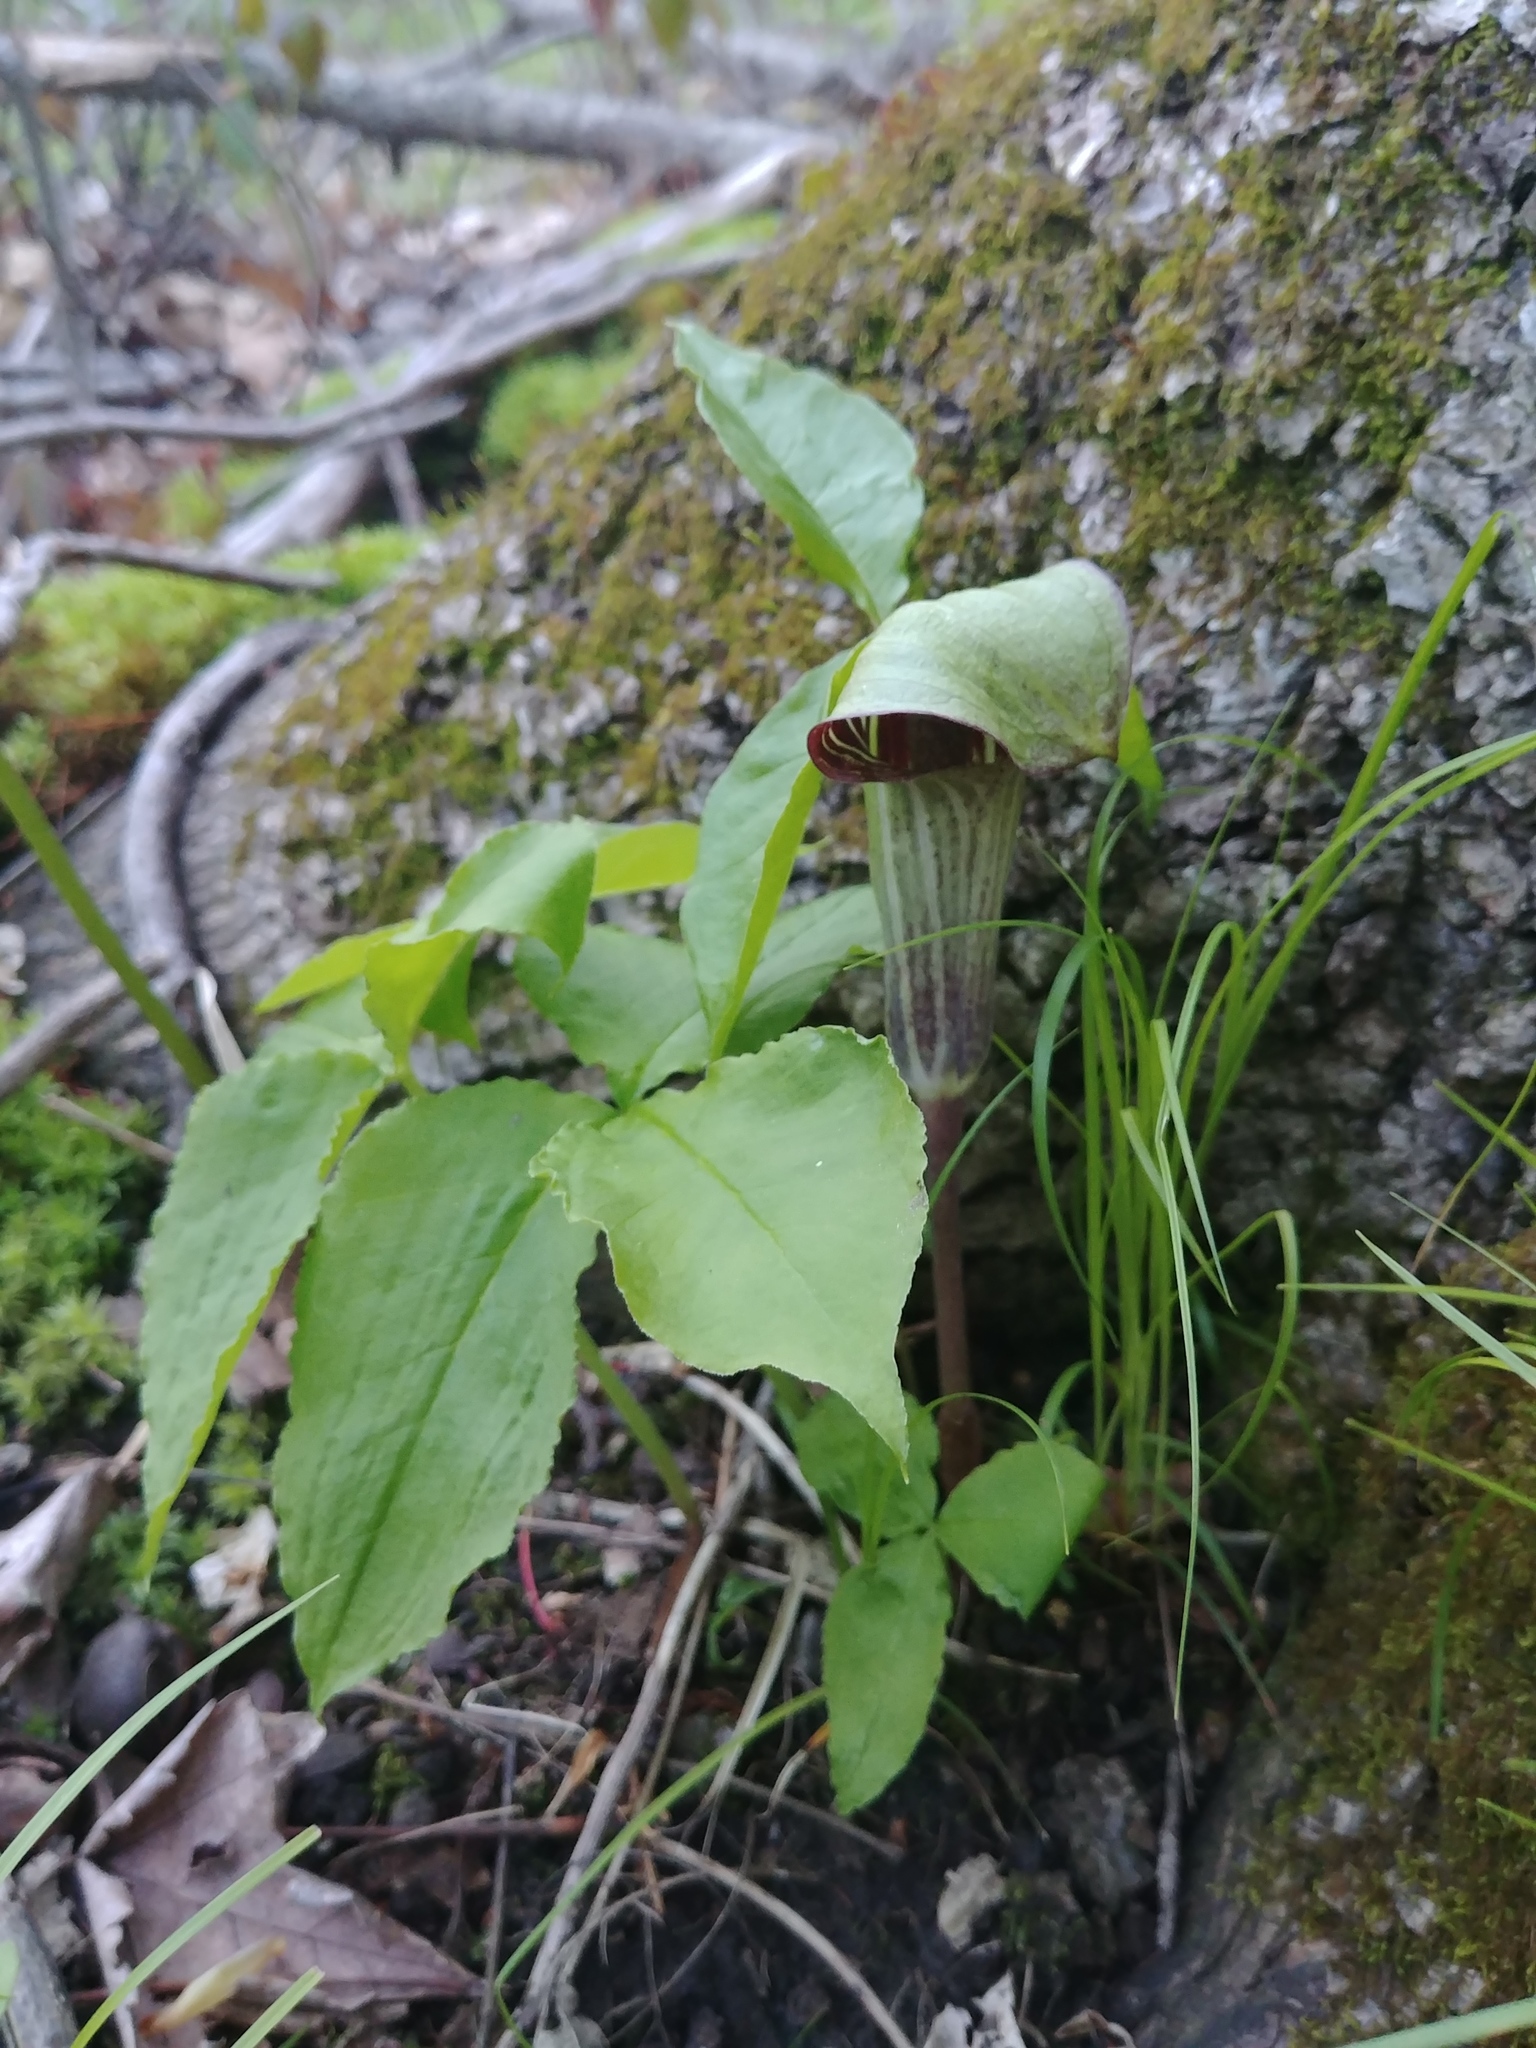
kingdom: Plantae
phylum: Tracheophyta
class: Liliopsida
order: Alismatales
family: Araceae
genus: Arisaema
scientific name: Arisaema triphyllum
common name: Jack-in-the-pulpit
